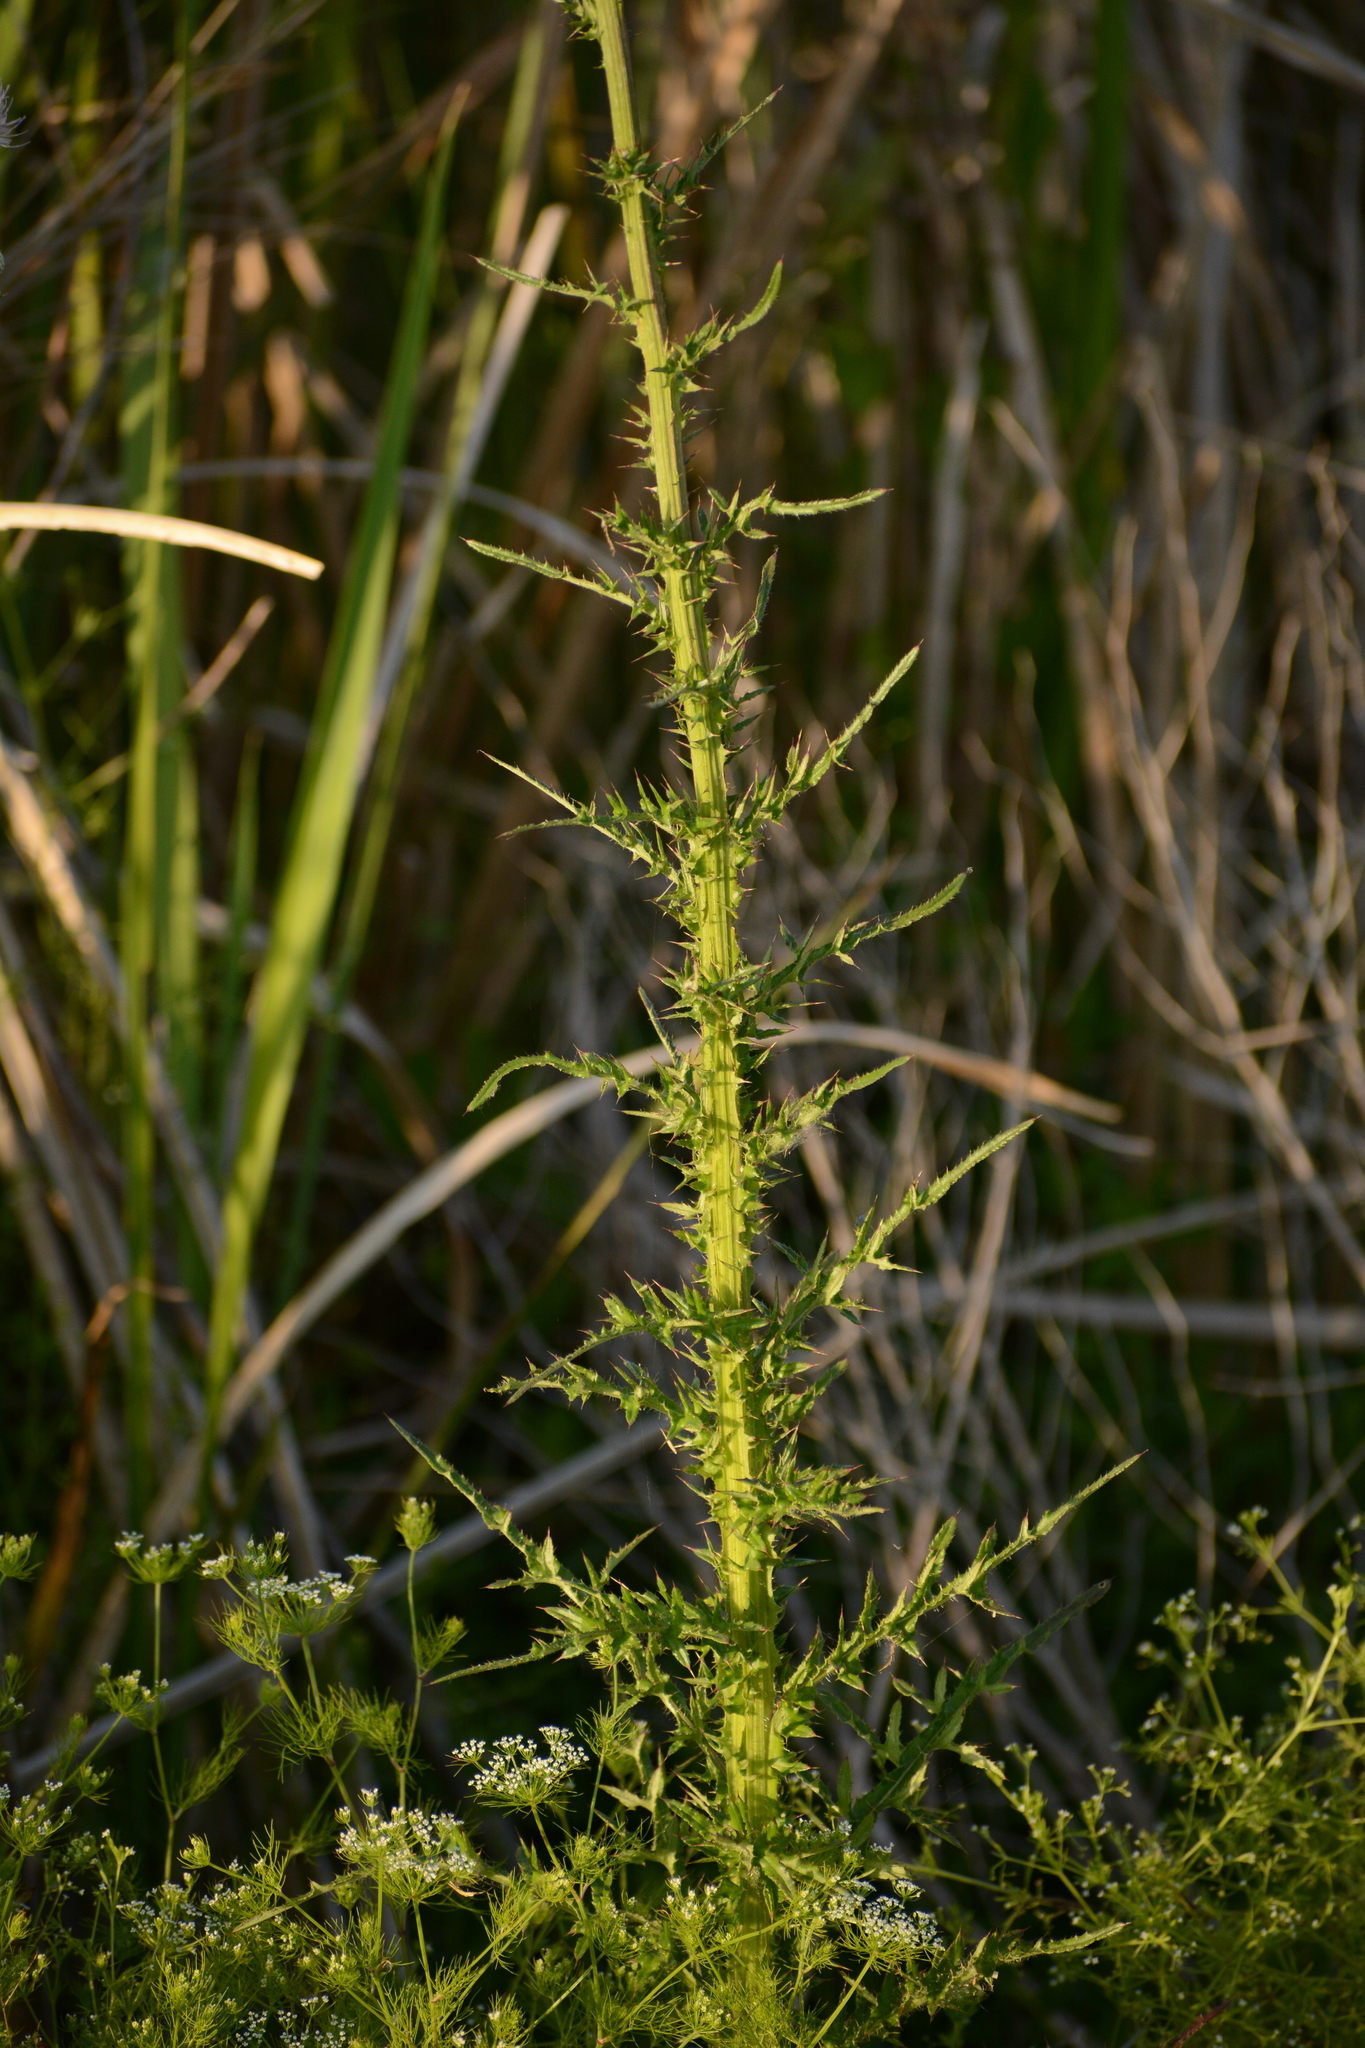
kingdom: Plantae
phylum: Tracheophyta
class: Magnoliopsida
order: Asterales
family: Asteraceae
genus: Cirsium
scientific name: Cirsium nuttalii
